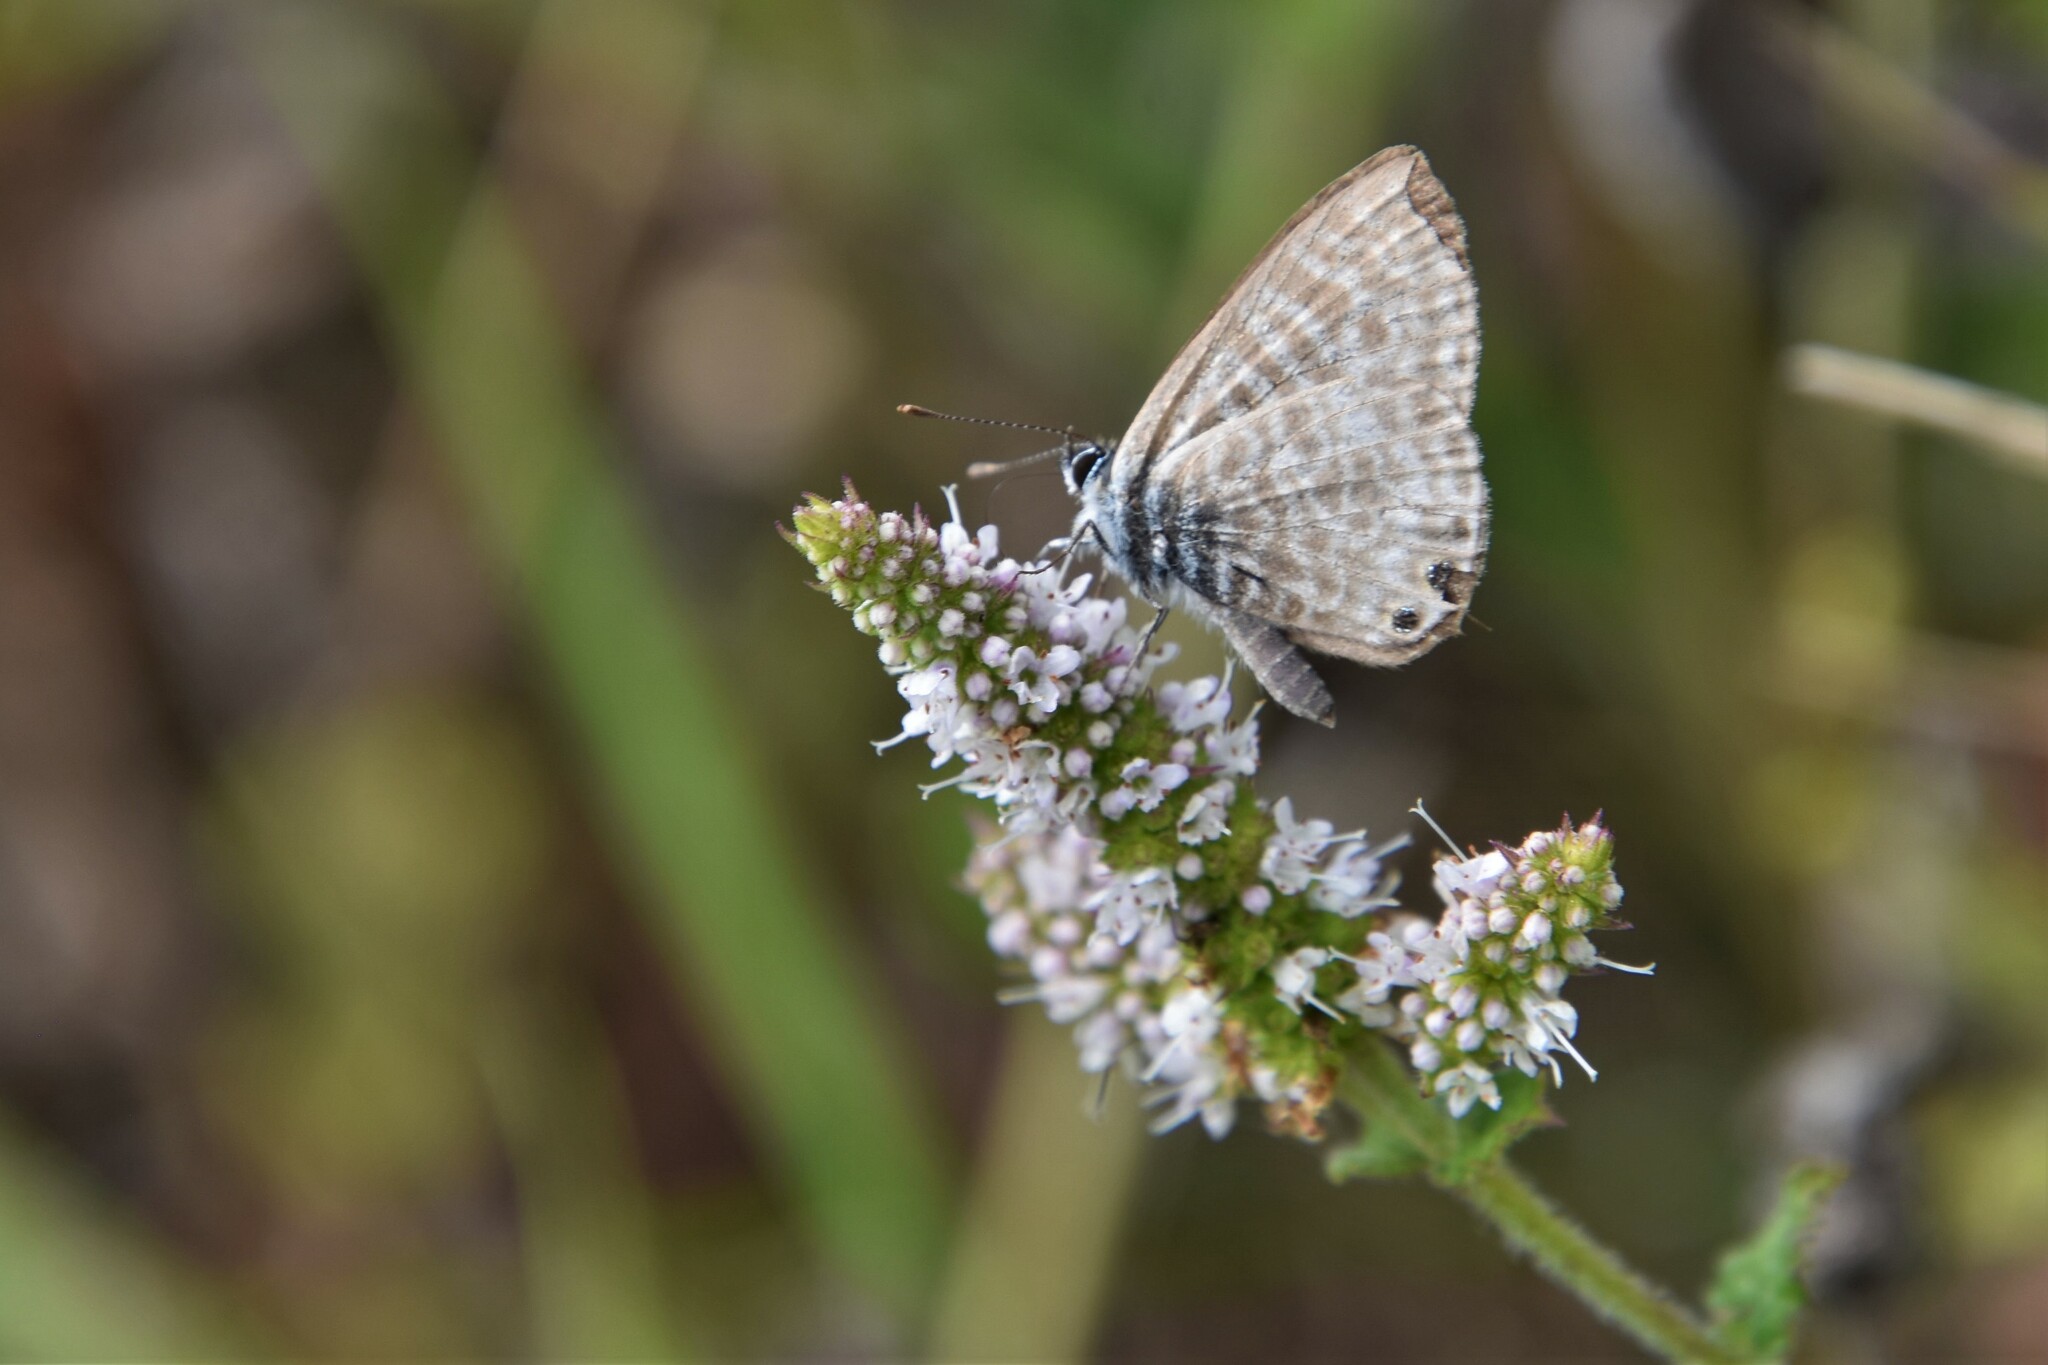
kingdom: Animalia
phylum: Arthropoda
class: Insecta
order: Lepidoptera
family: Lycaenidae
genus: Leptotes
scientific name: Leptotes pirithous
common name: Lang's short-tailed blue
